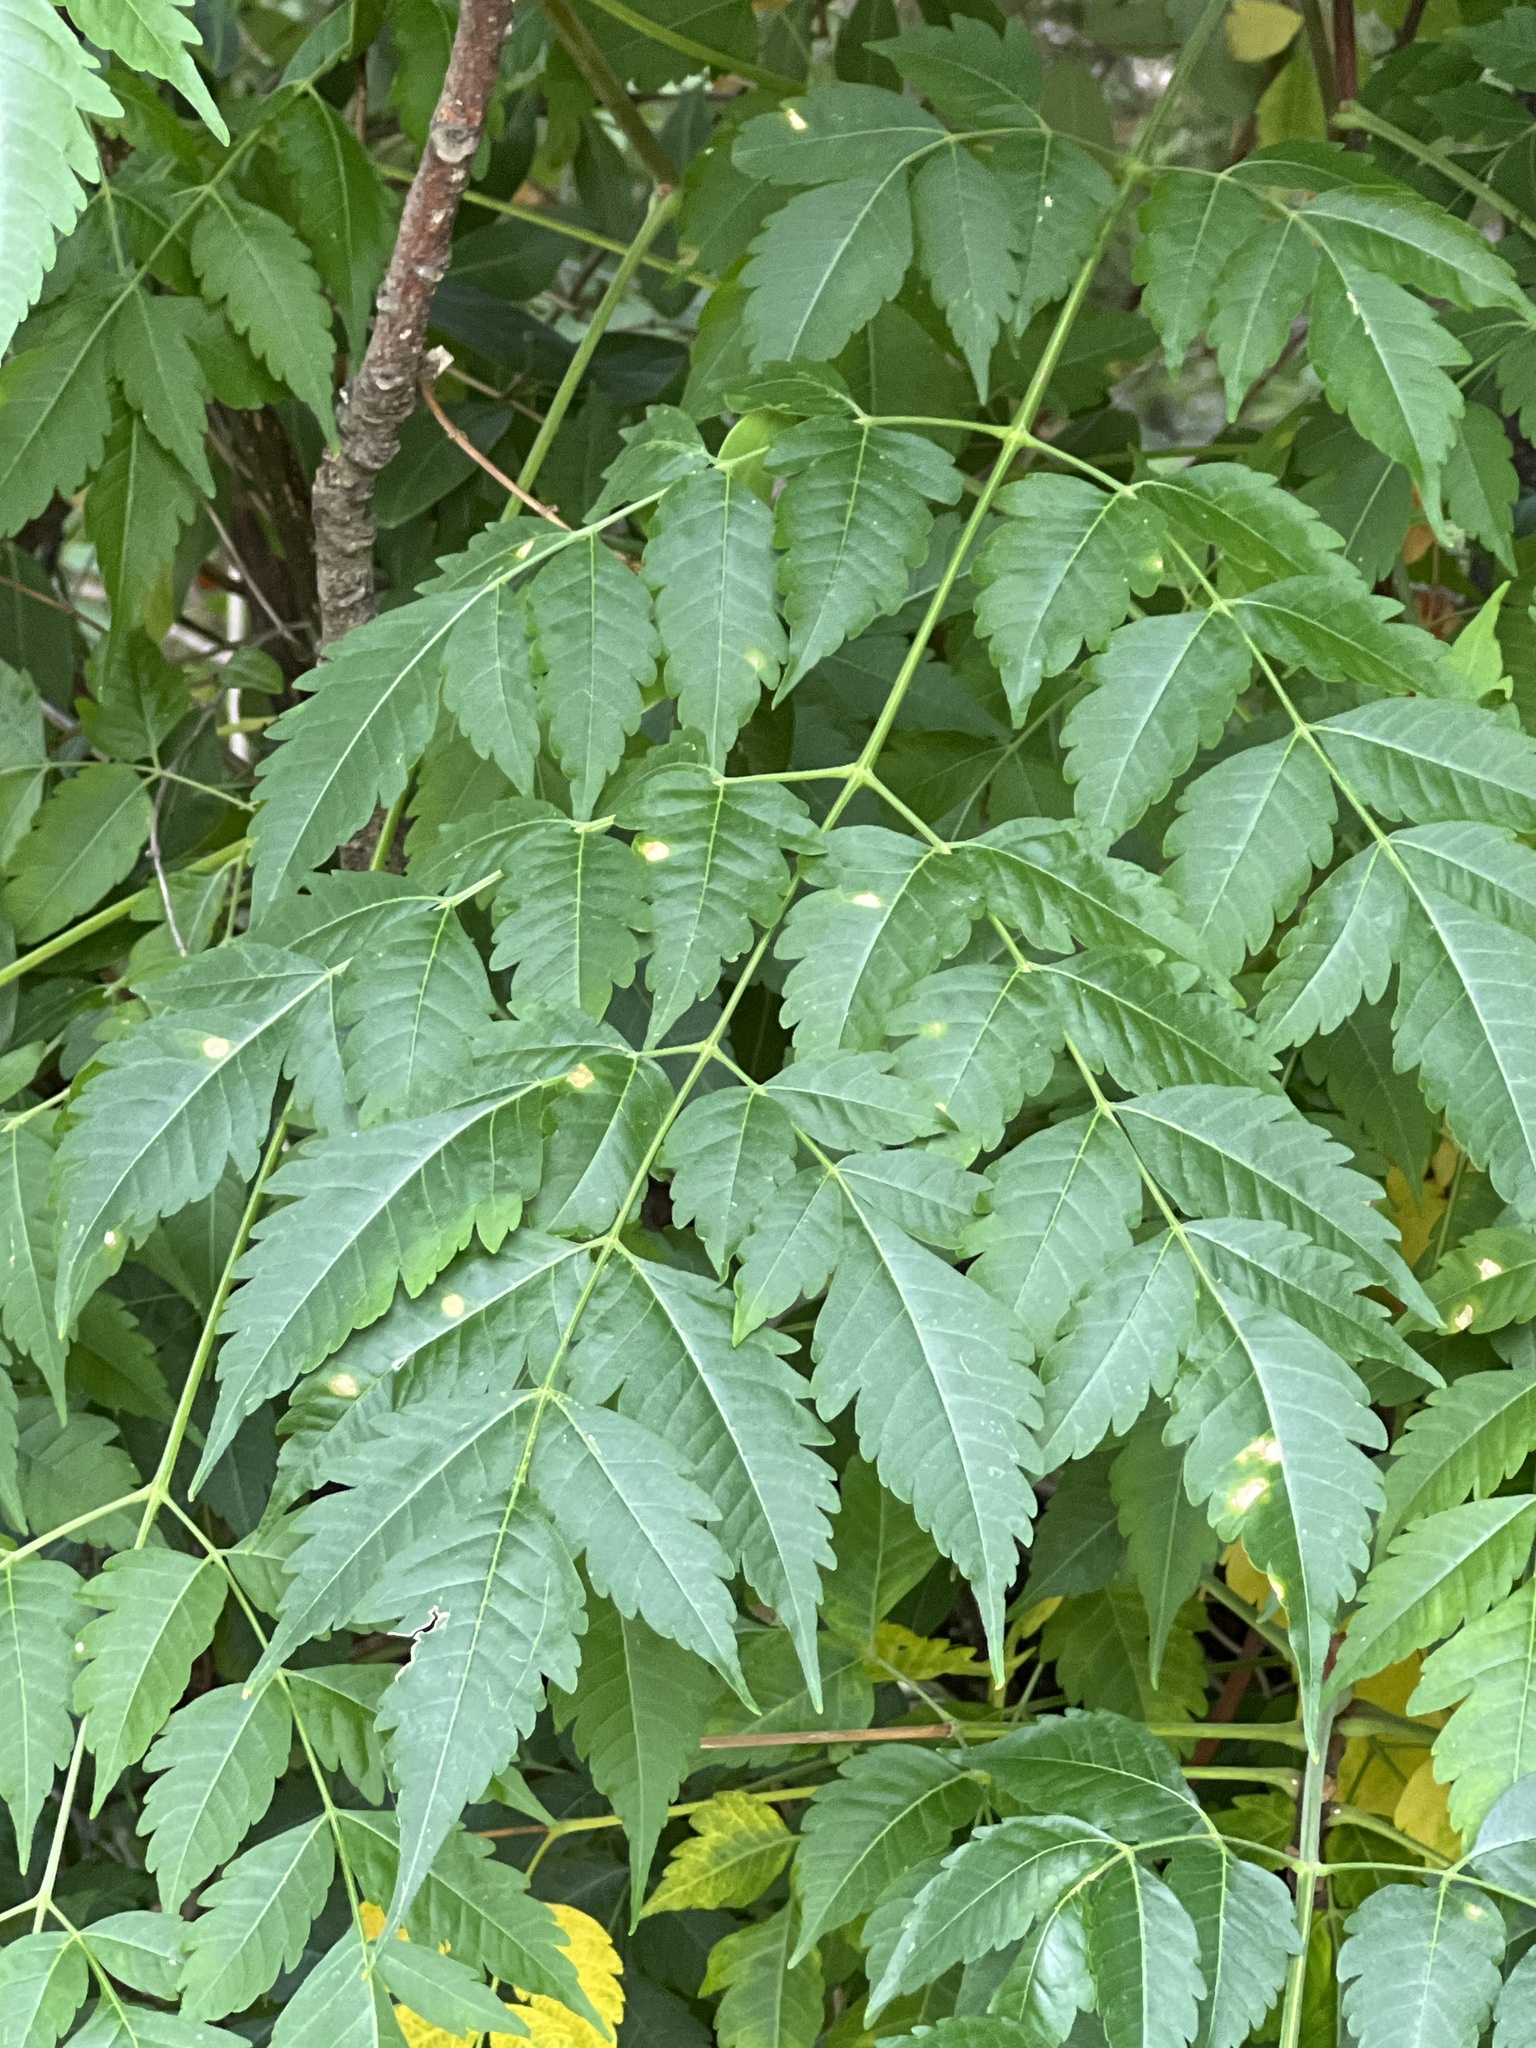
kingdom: Plantae
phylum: Tracheophyta
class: Magnoliopsida
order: Sapindales
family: Meliaceae
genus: Melia
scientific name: Melia azedarach
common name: Chinaberrytree
